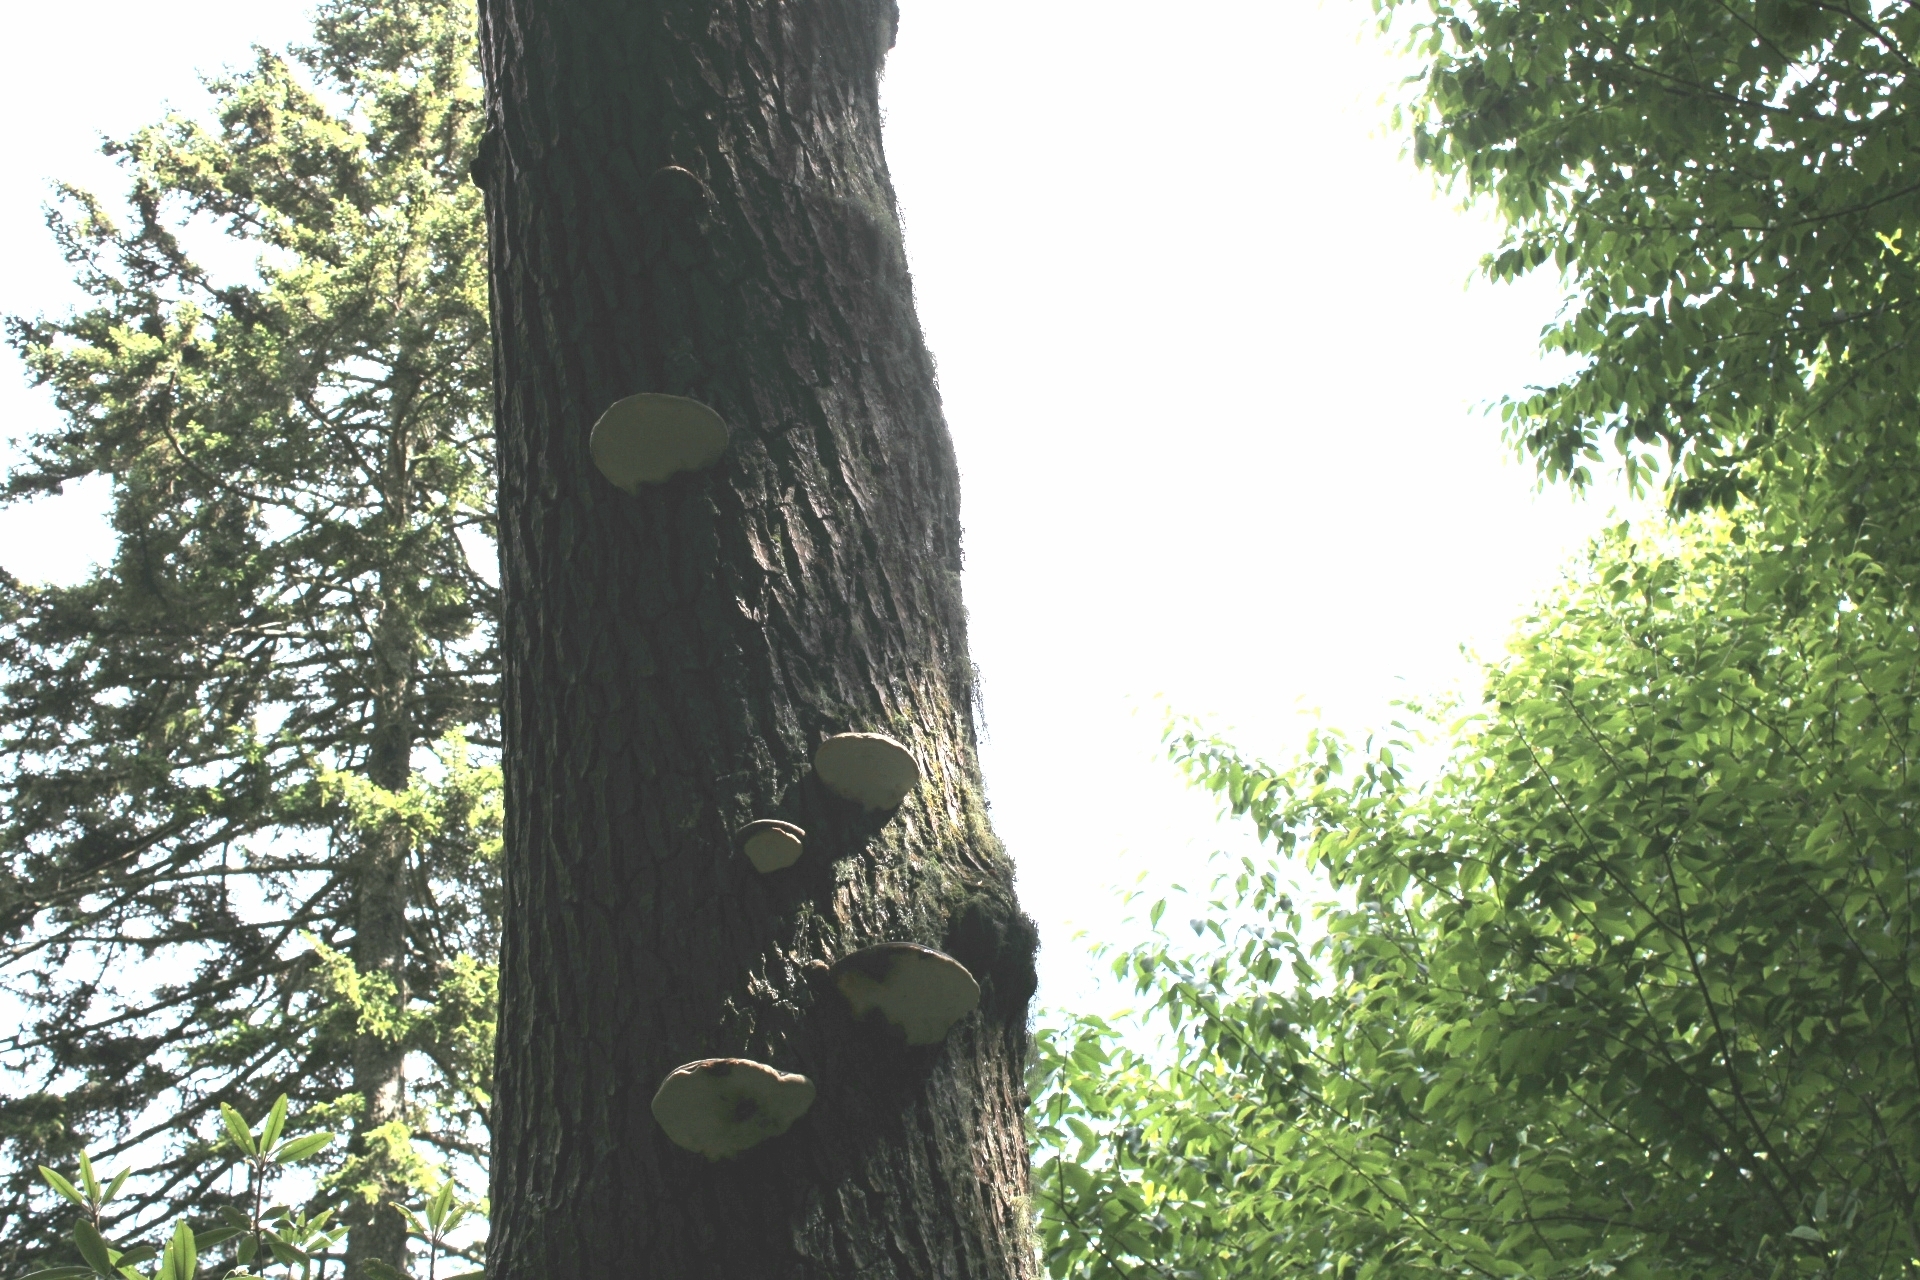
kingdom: Fungi
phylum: Basidiomycota
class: Agaricomycetes
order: Polyporales
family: Fomitopsidaceae
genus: Fomitopsis
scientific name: Fomitopsis ochracea
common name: American brown fomitopsis
